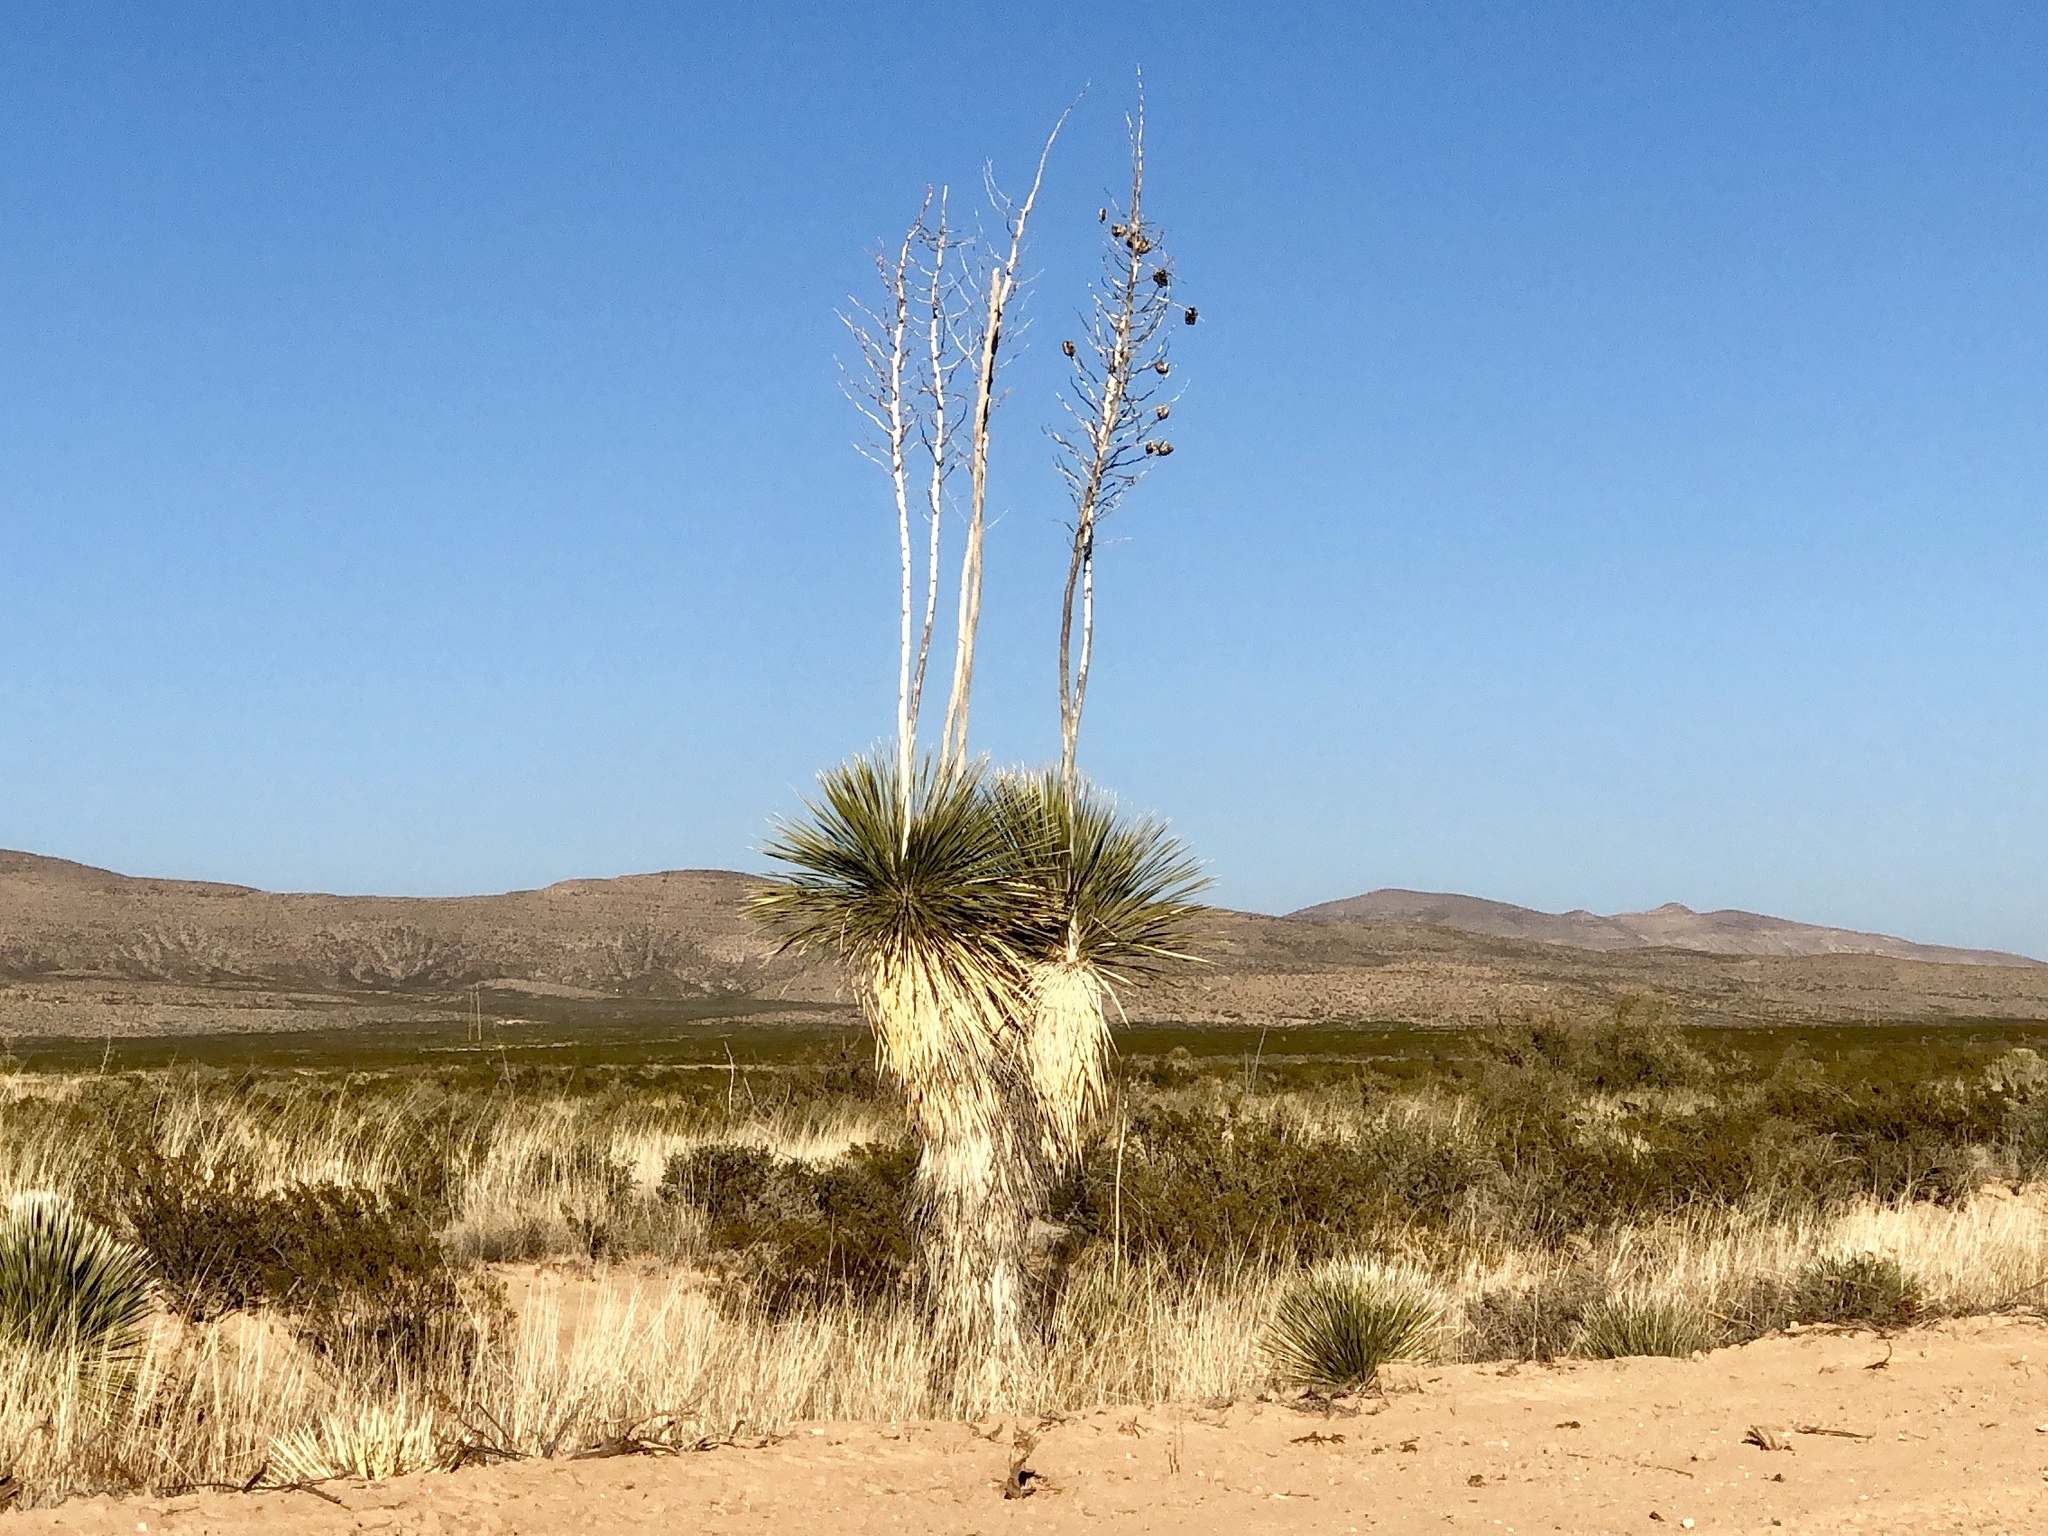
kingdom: Plantae
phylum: Tracheophyta
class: Liliopsida
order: Asparagales
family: Asparagaceae
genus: Yucca
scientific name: Yucca elata
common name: Palmella
